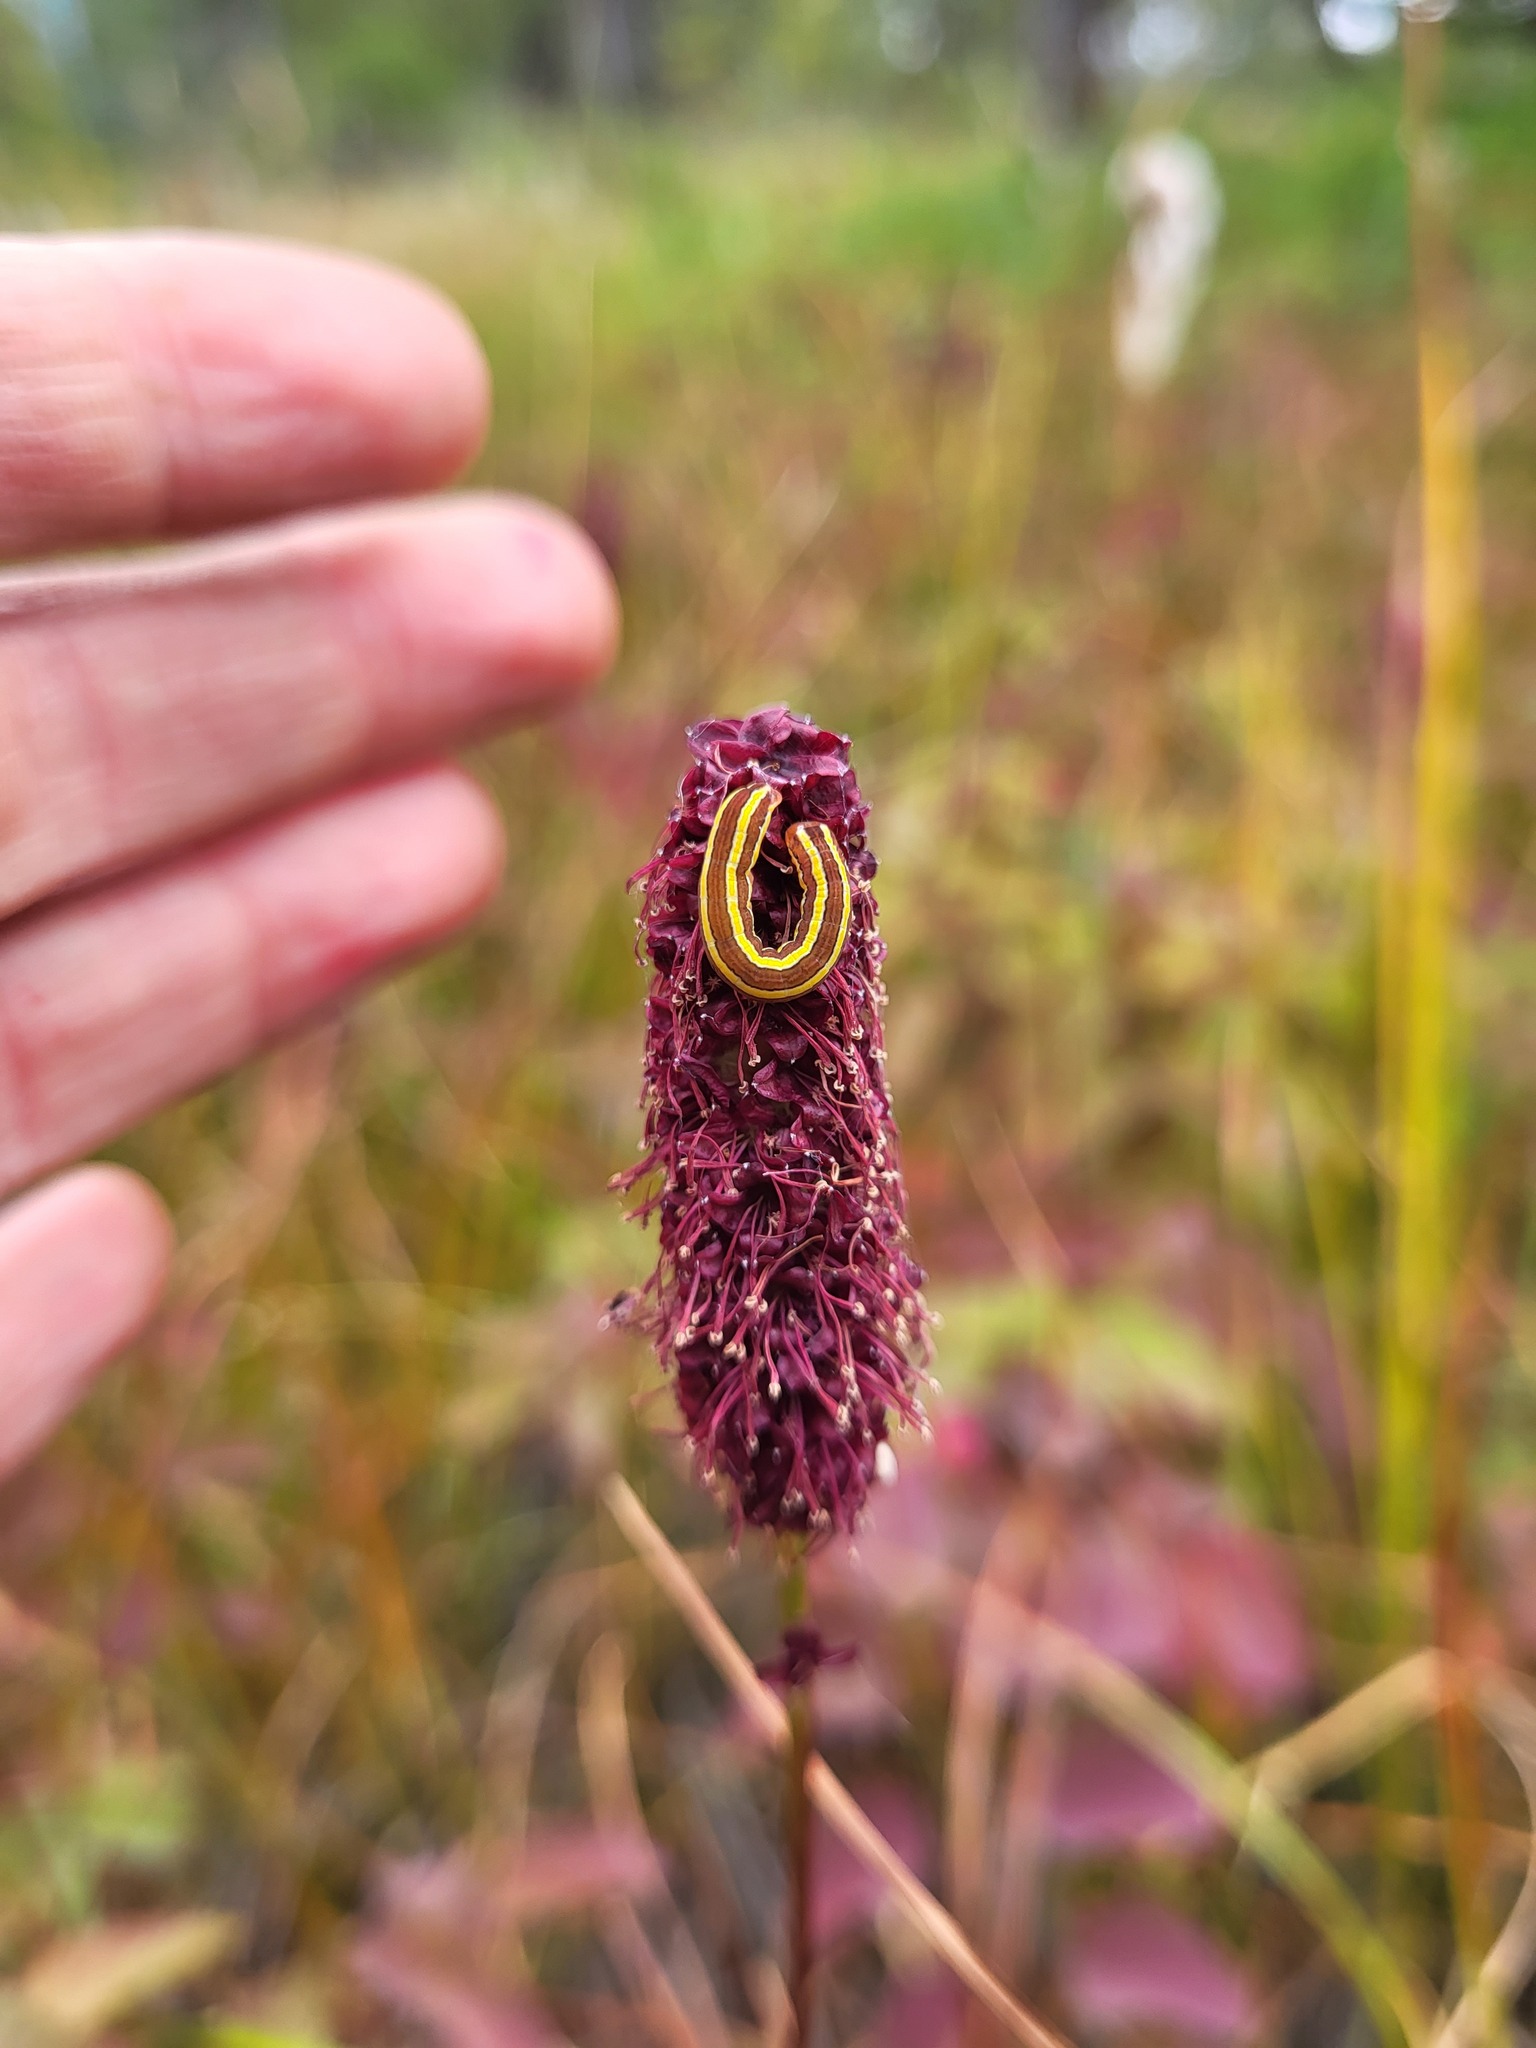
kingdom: Animalia
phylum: Arthropoda
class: Insecta
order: Lepidoptera
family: Noctuidae
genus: Melanchra
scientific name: Melanchra pulverulenta
